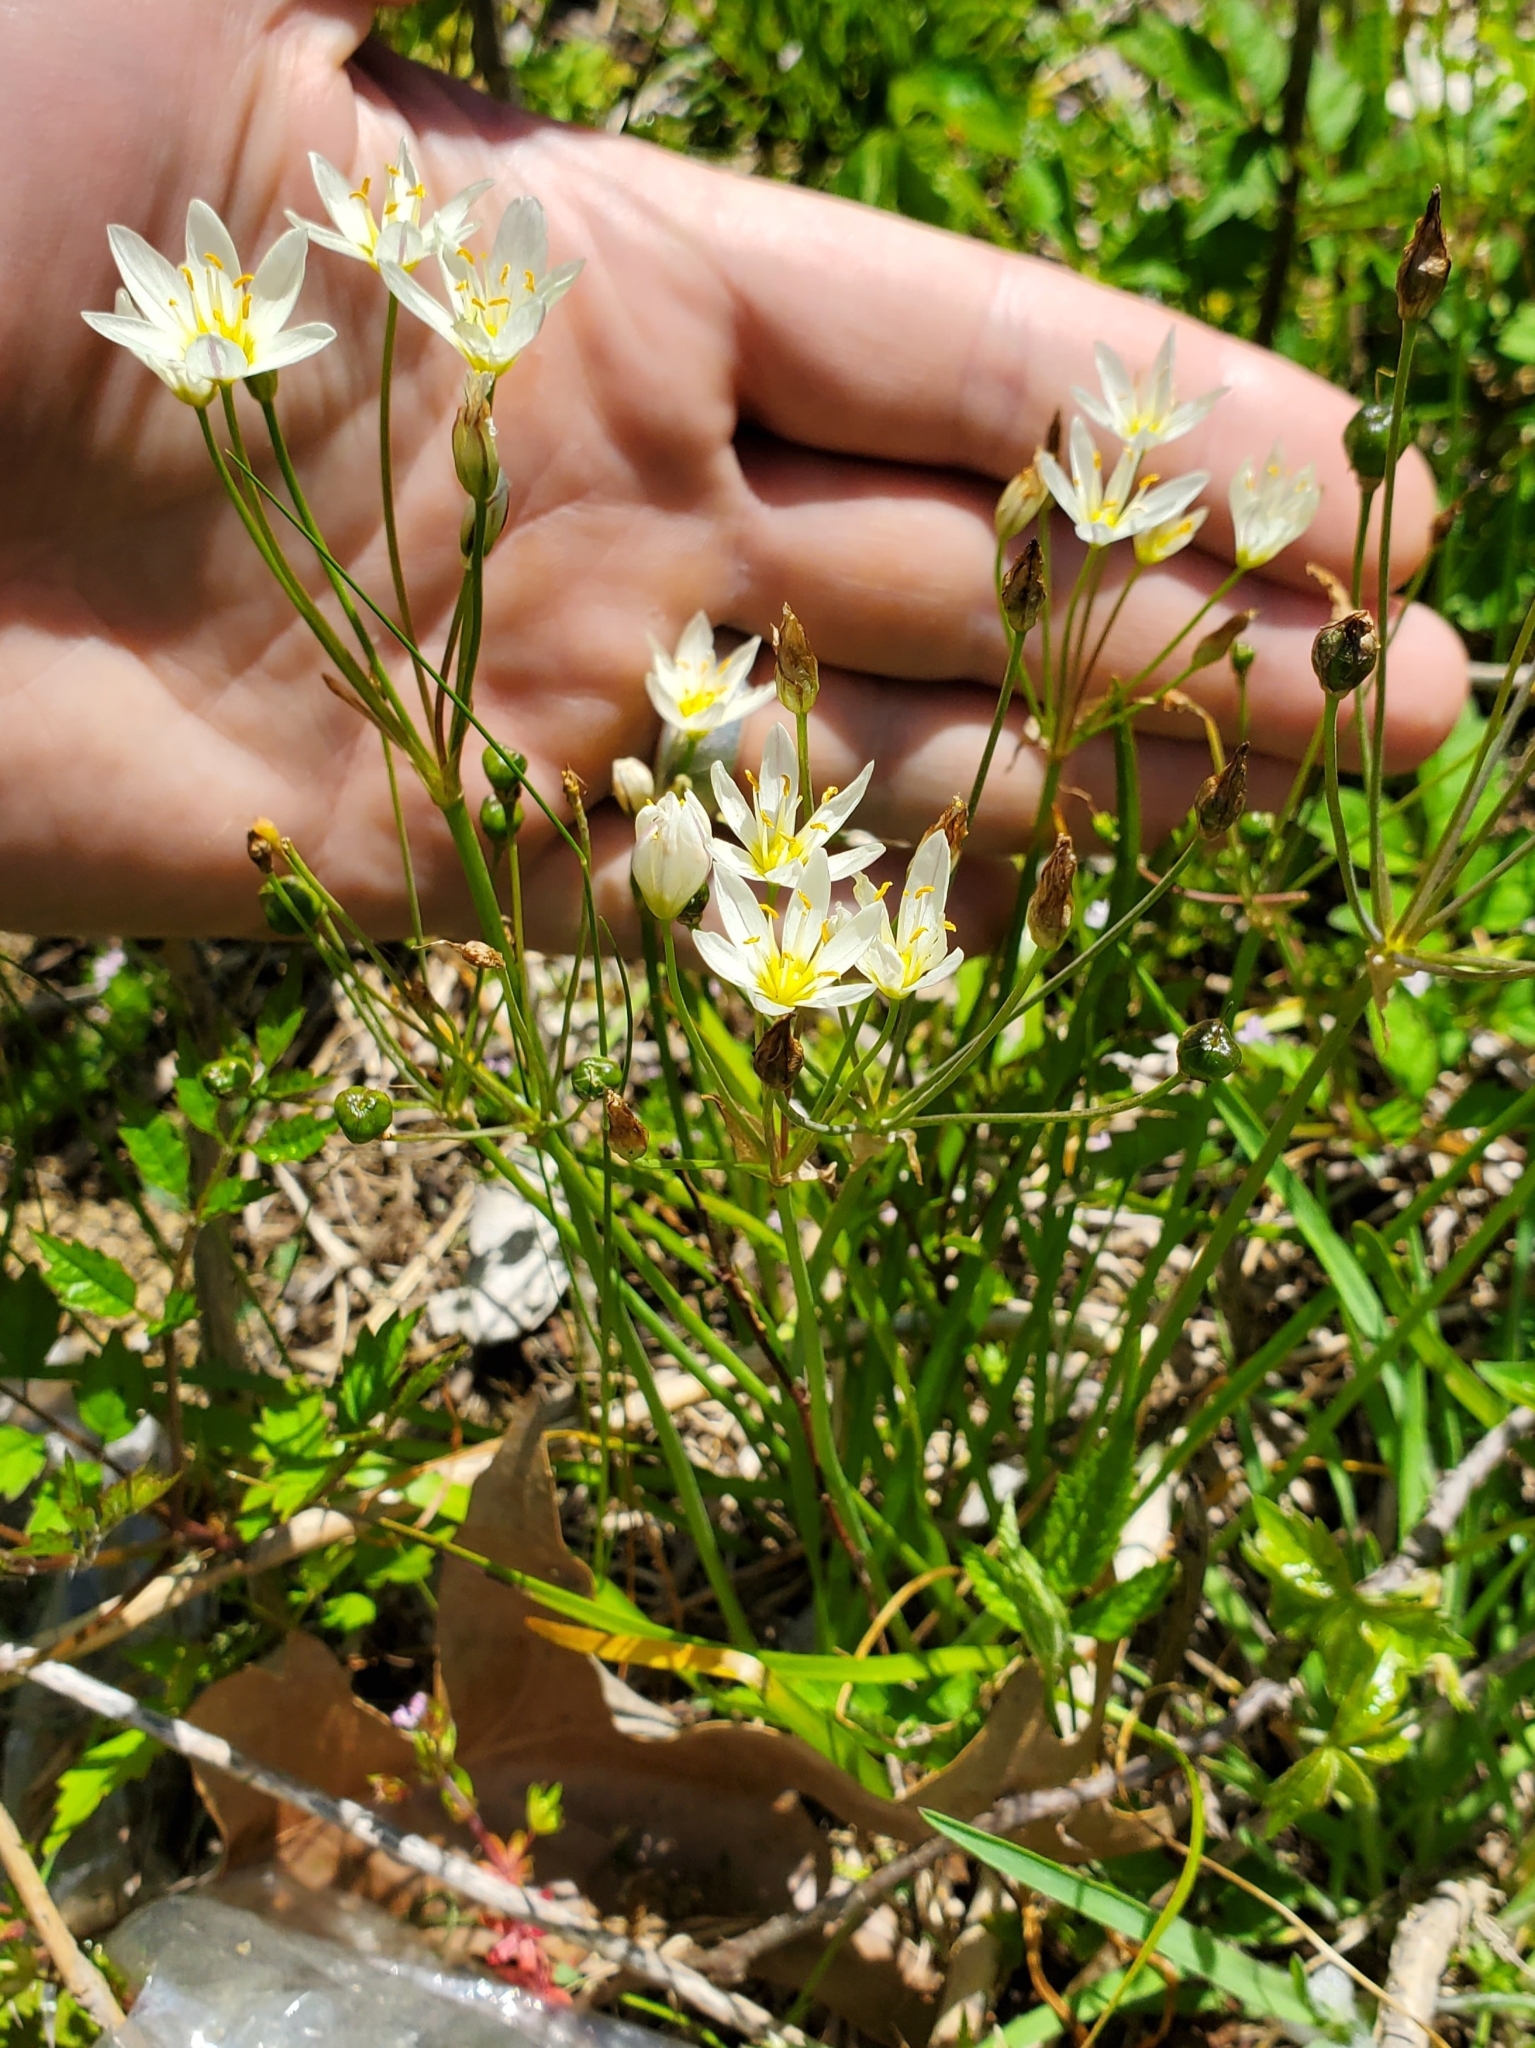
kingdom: Plantae
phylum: Tracheophyta
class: Liliopsida
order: Asparagales
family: Amaryllidaceae
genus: Nothoscordum
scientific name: Nothoscordum bivalve
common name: Crow-poison
